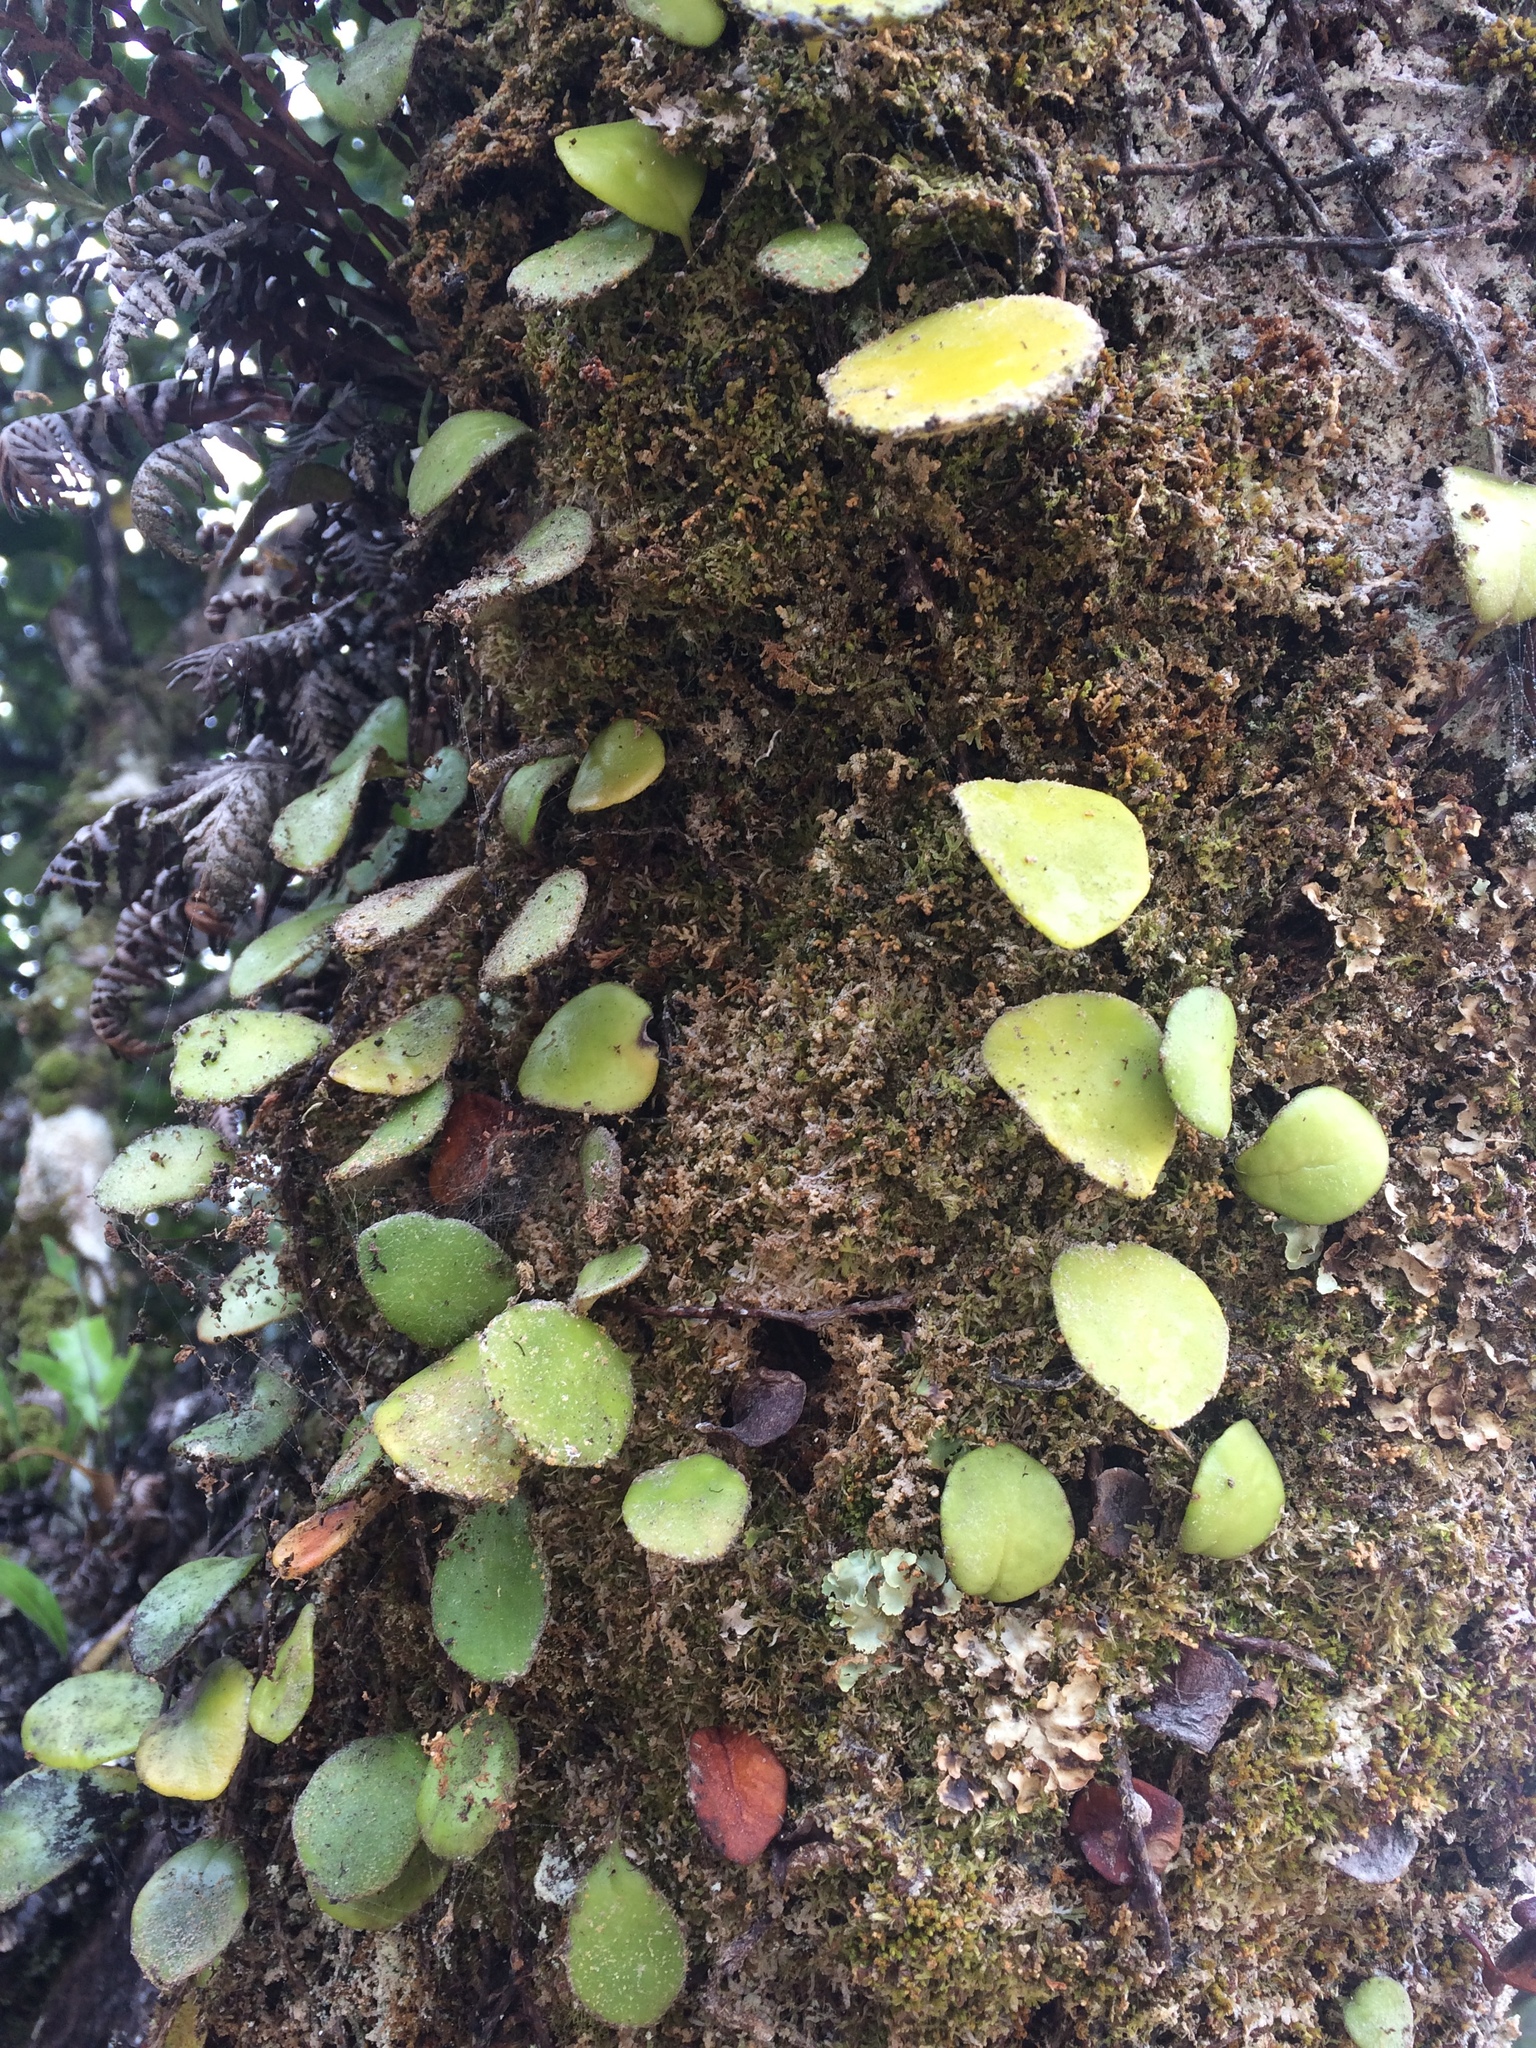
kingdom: Plantae
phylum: Tracheophyta
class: Polypodiopsida
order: Polypodiales
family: Polypodiaceae
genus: Pyrrosia
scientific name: Pyrrosia eleagnifolia
